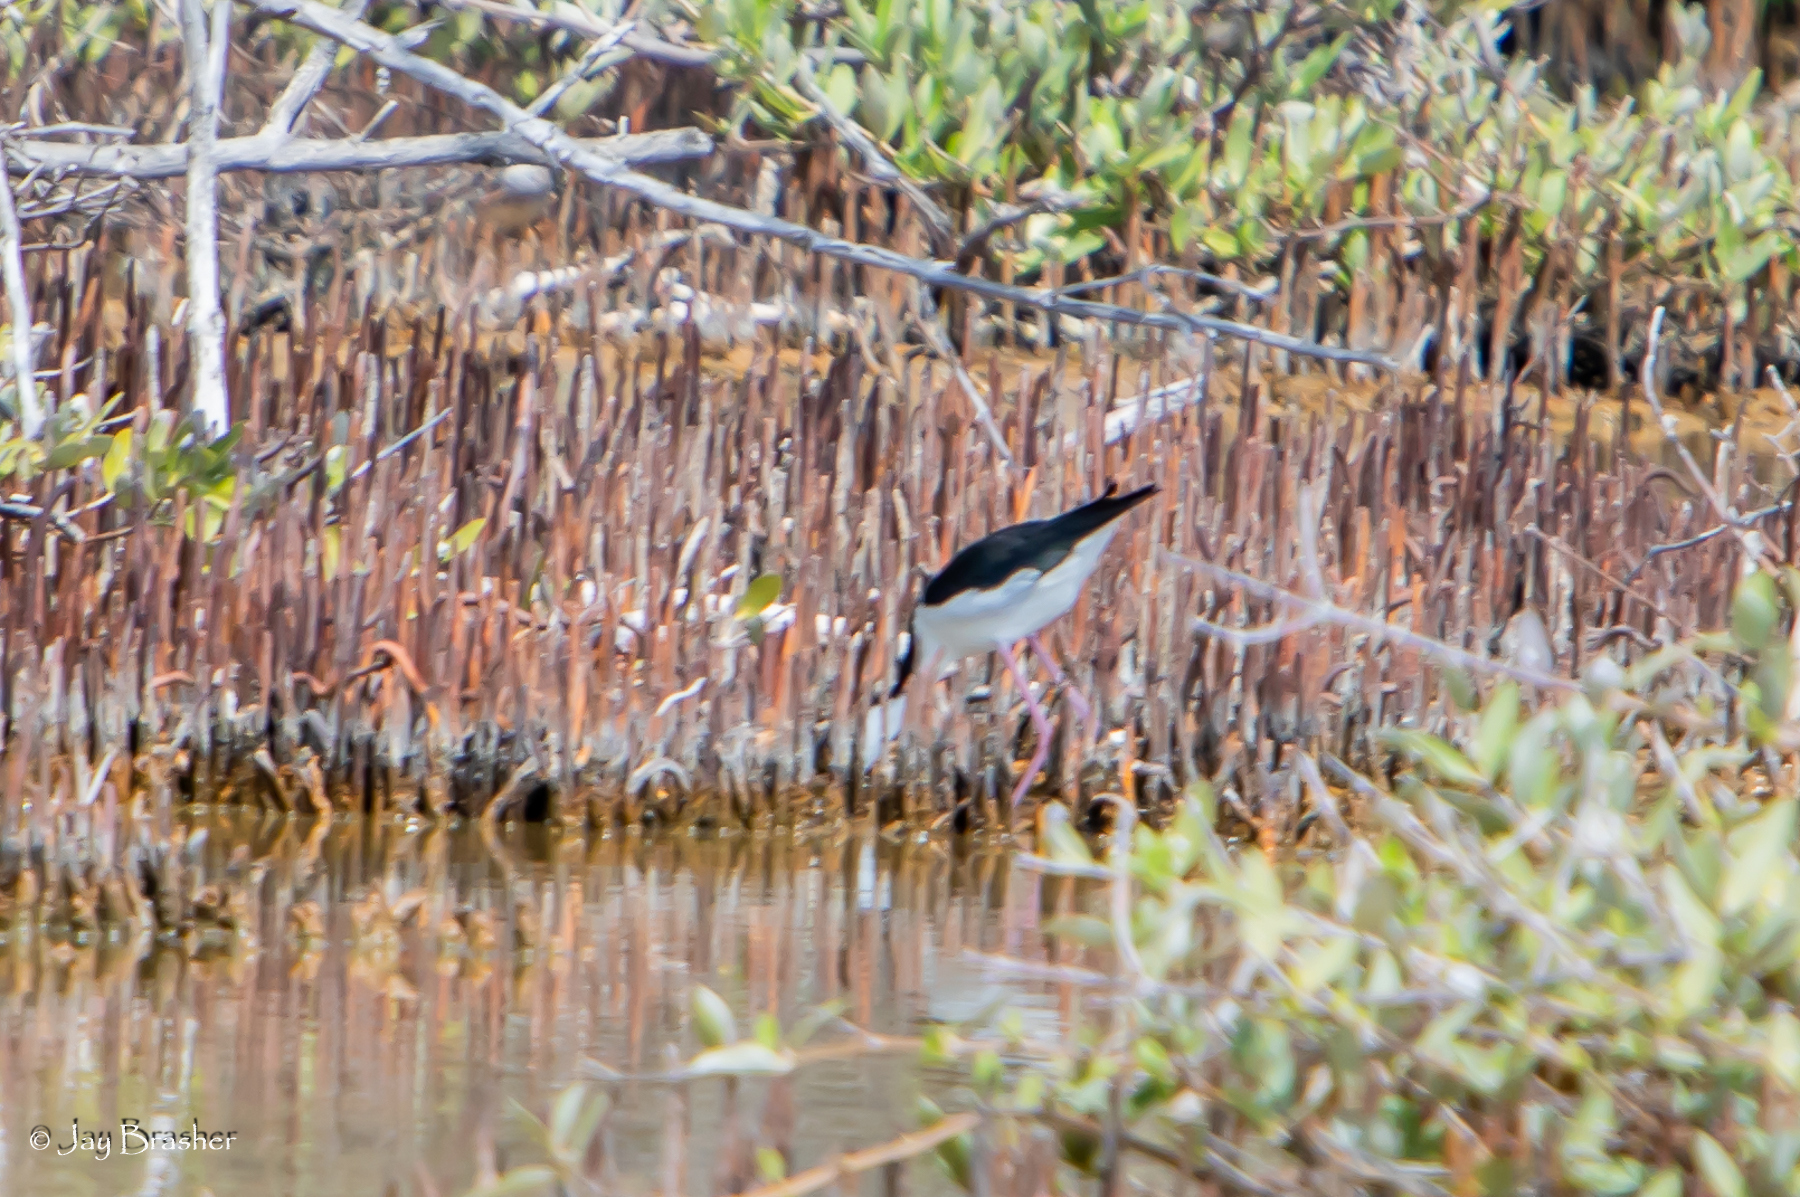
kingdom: Animalia
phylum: Chordata
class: Aves
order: Charadriiformes
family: Recurvirostridae
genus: Himantopus
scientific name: Himantopus mexicanus
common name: Black-necked stilt
